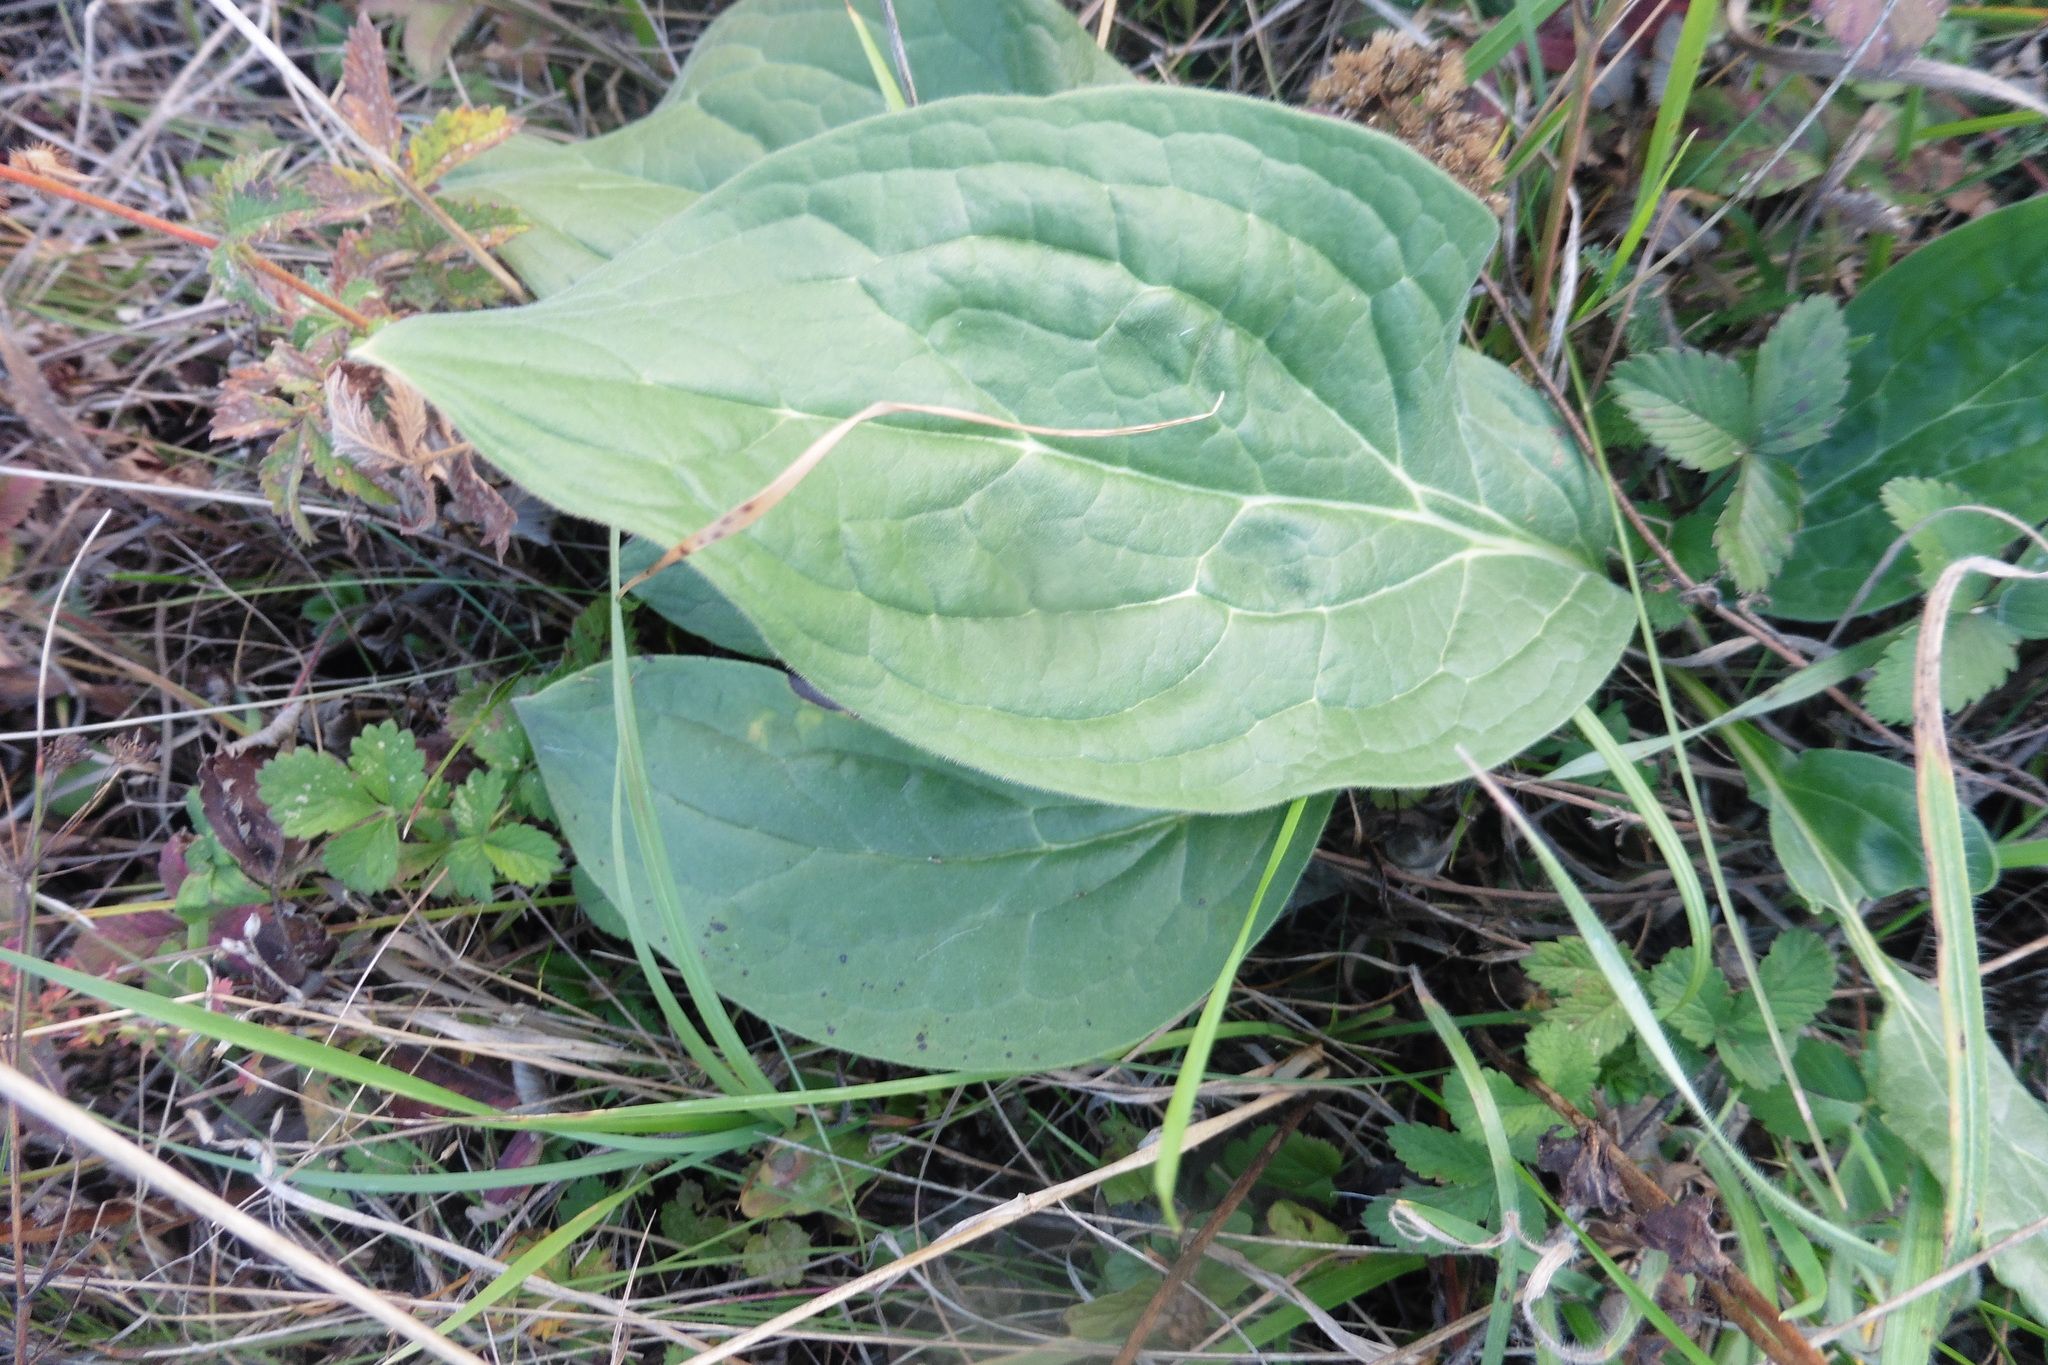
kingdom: Plantae
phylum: Tracheophyta
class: Magnoliopsida
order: Boraginales
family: Boraginaceae
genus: Cynoglossum
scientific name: Cynoglossum officinale
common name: Hound's-tongue
